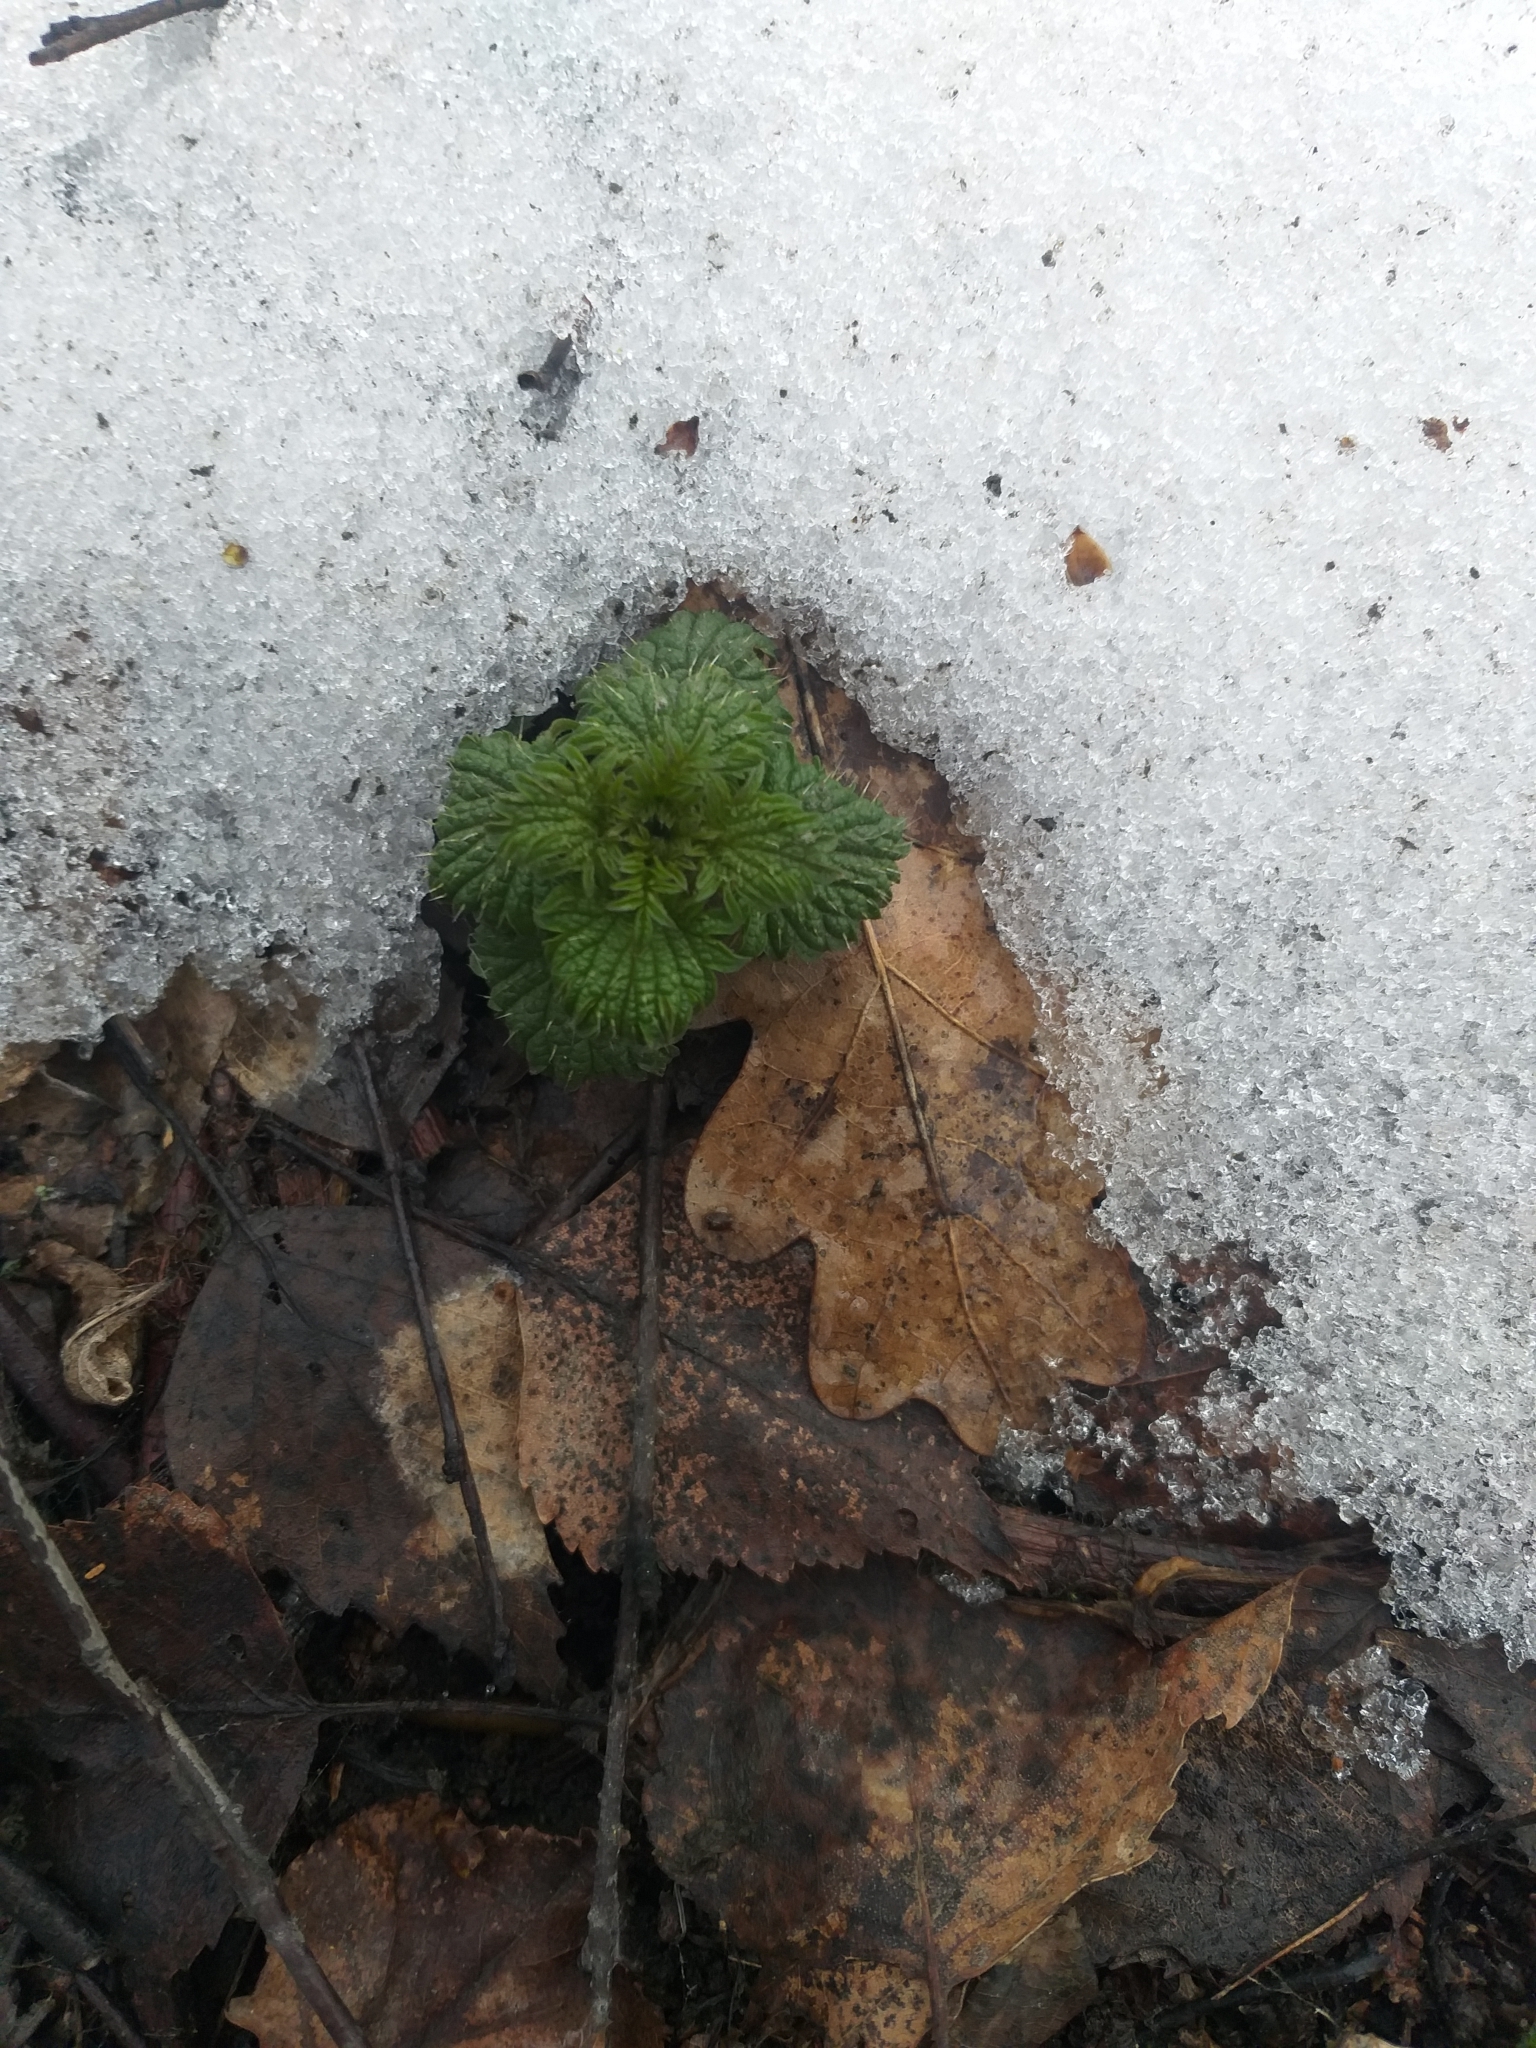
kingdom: Plantae
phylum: Tracheophyta
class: Magnoliopsida
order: Rosales
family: Urticaceae
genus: Urtica
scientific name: Urtica dioica
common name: Common nettle
